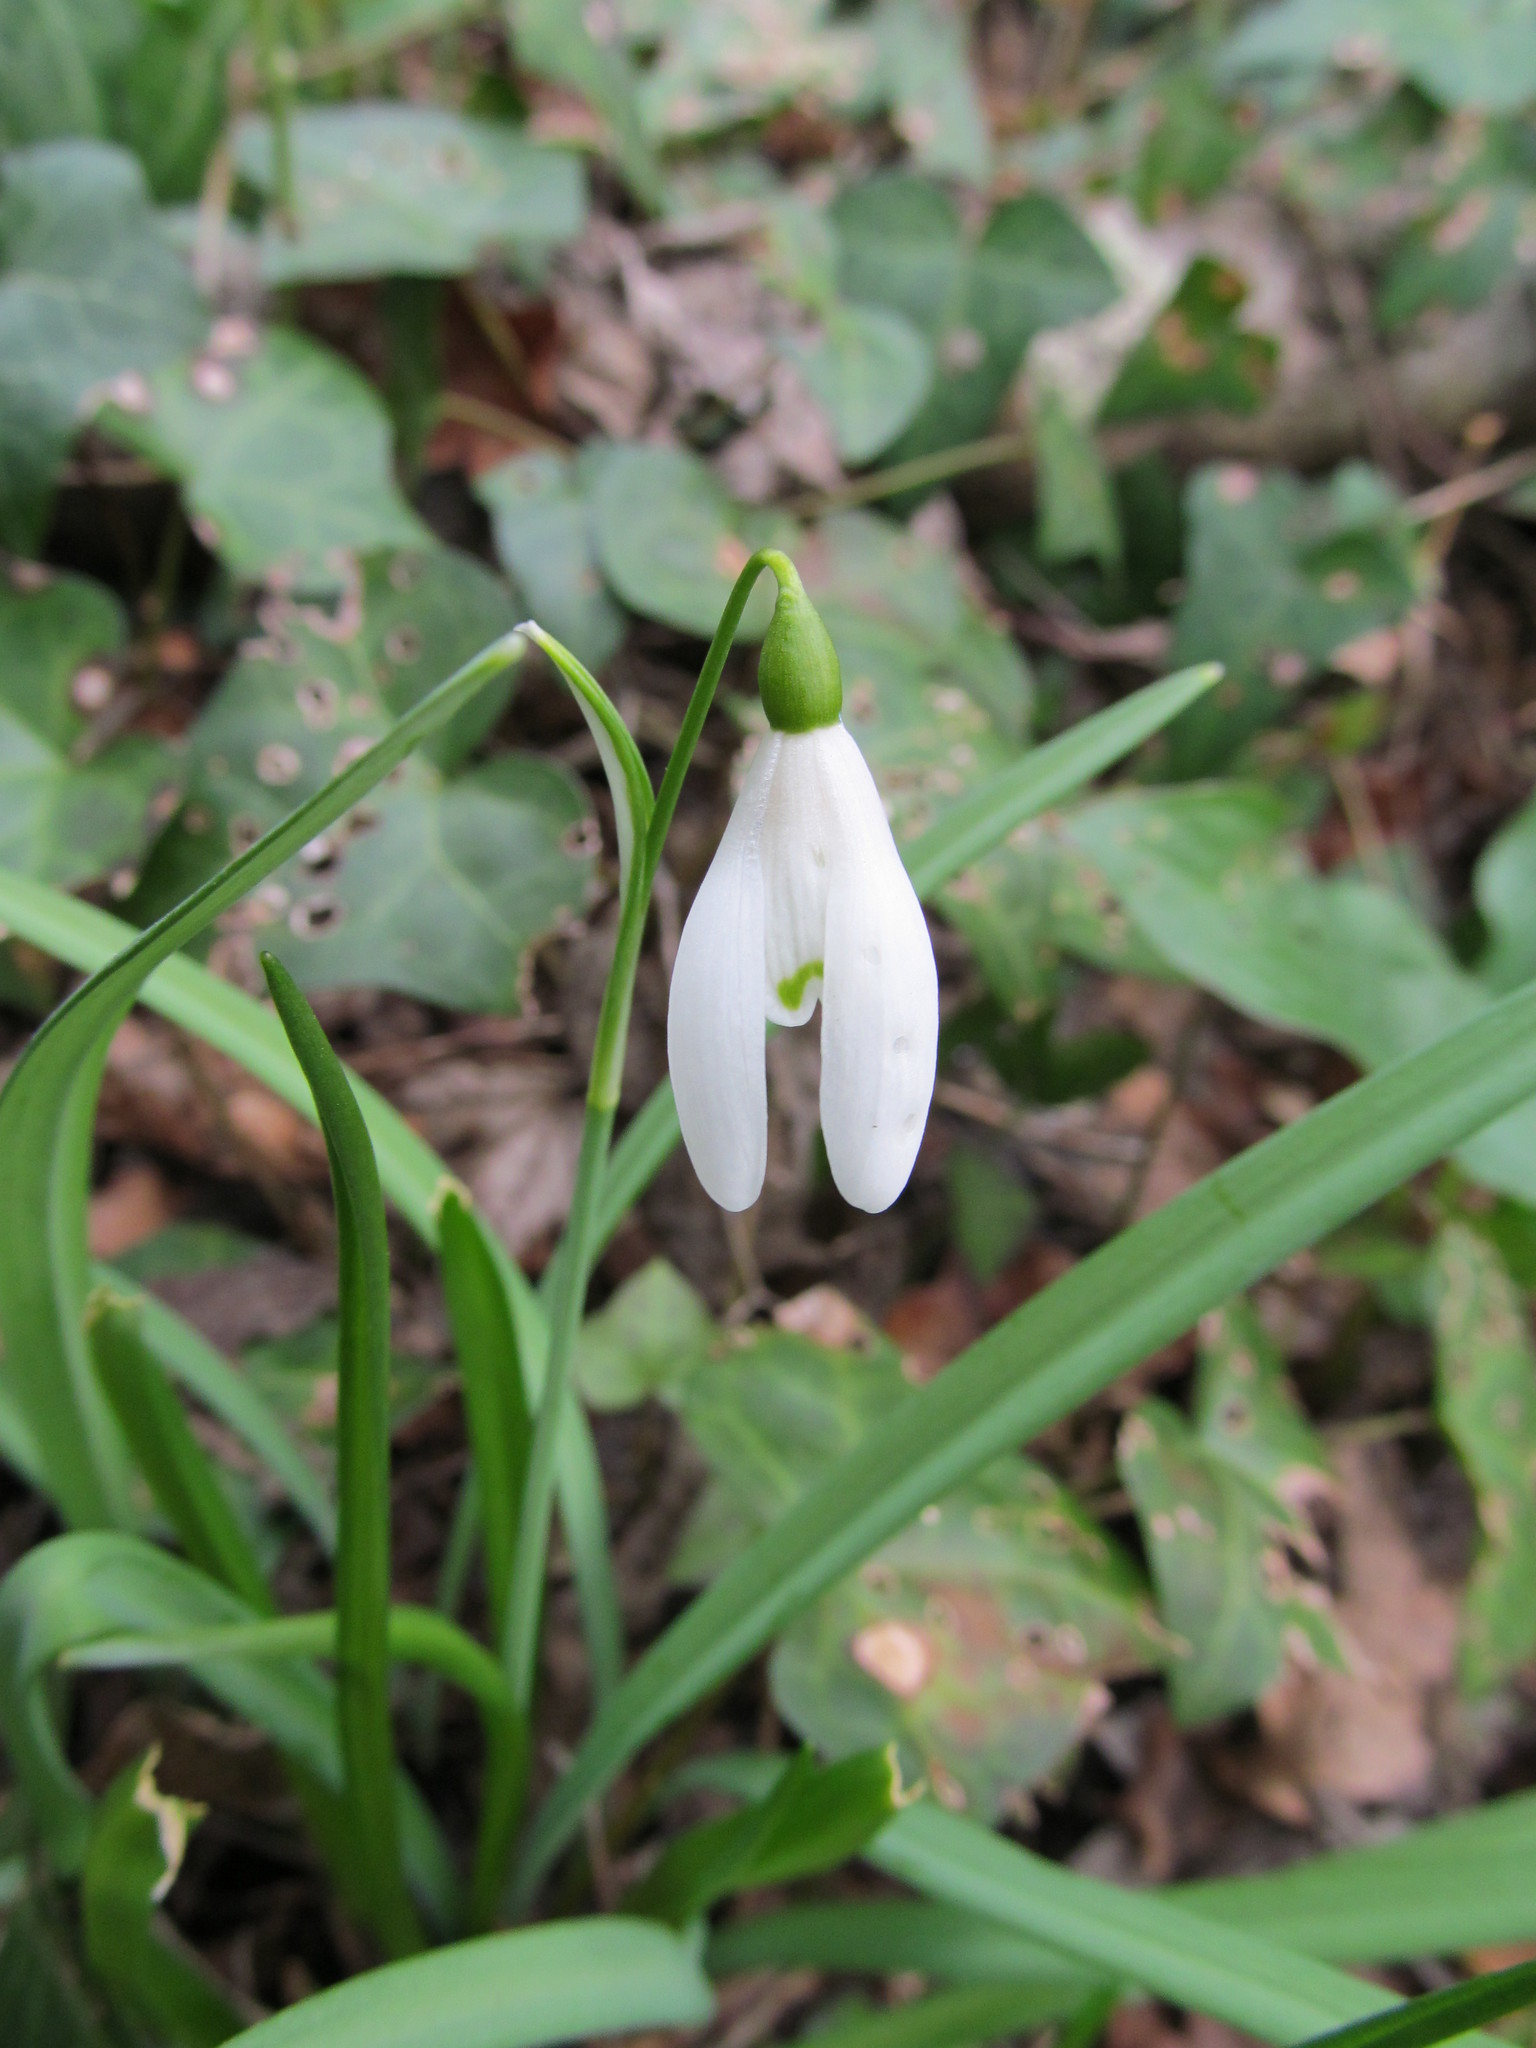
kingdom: Plantae
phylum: Tracheophyta
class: Liliopsida
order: Asparagales
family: Amaryllidaceae
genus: Galanthus
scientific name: Galanthus nivalis
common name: Snowdrop
